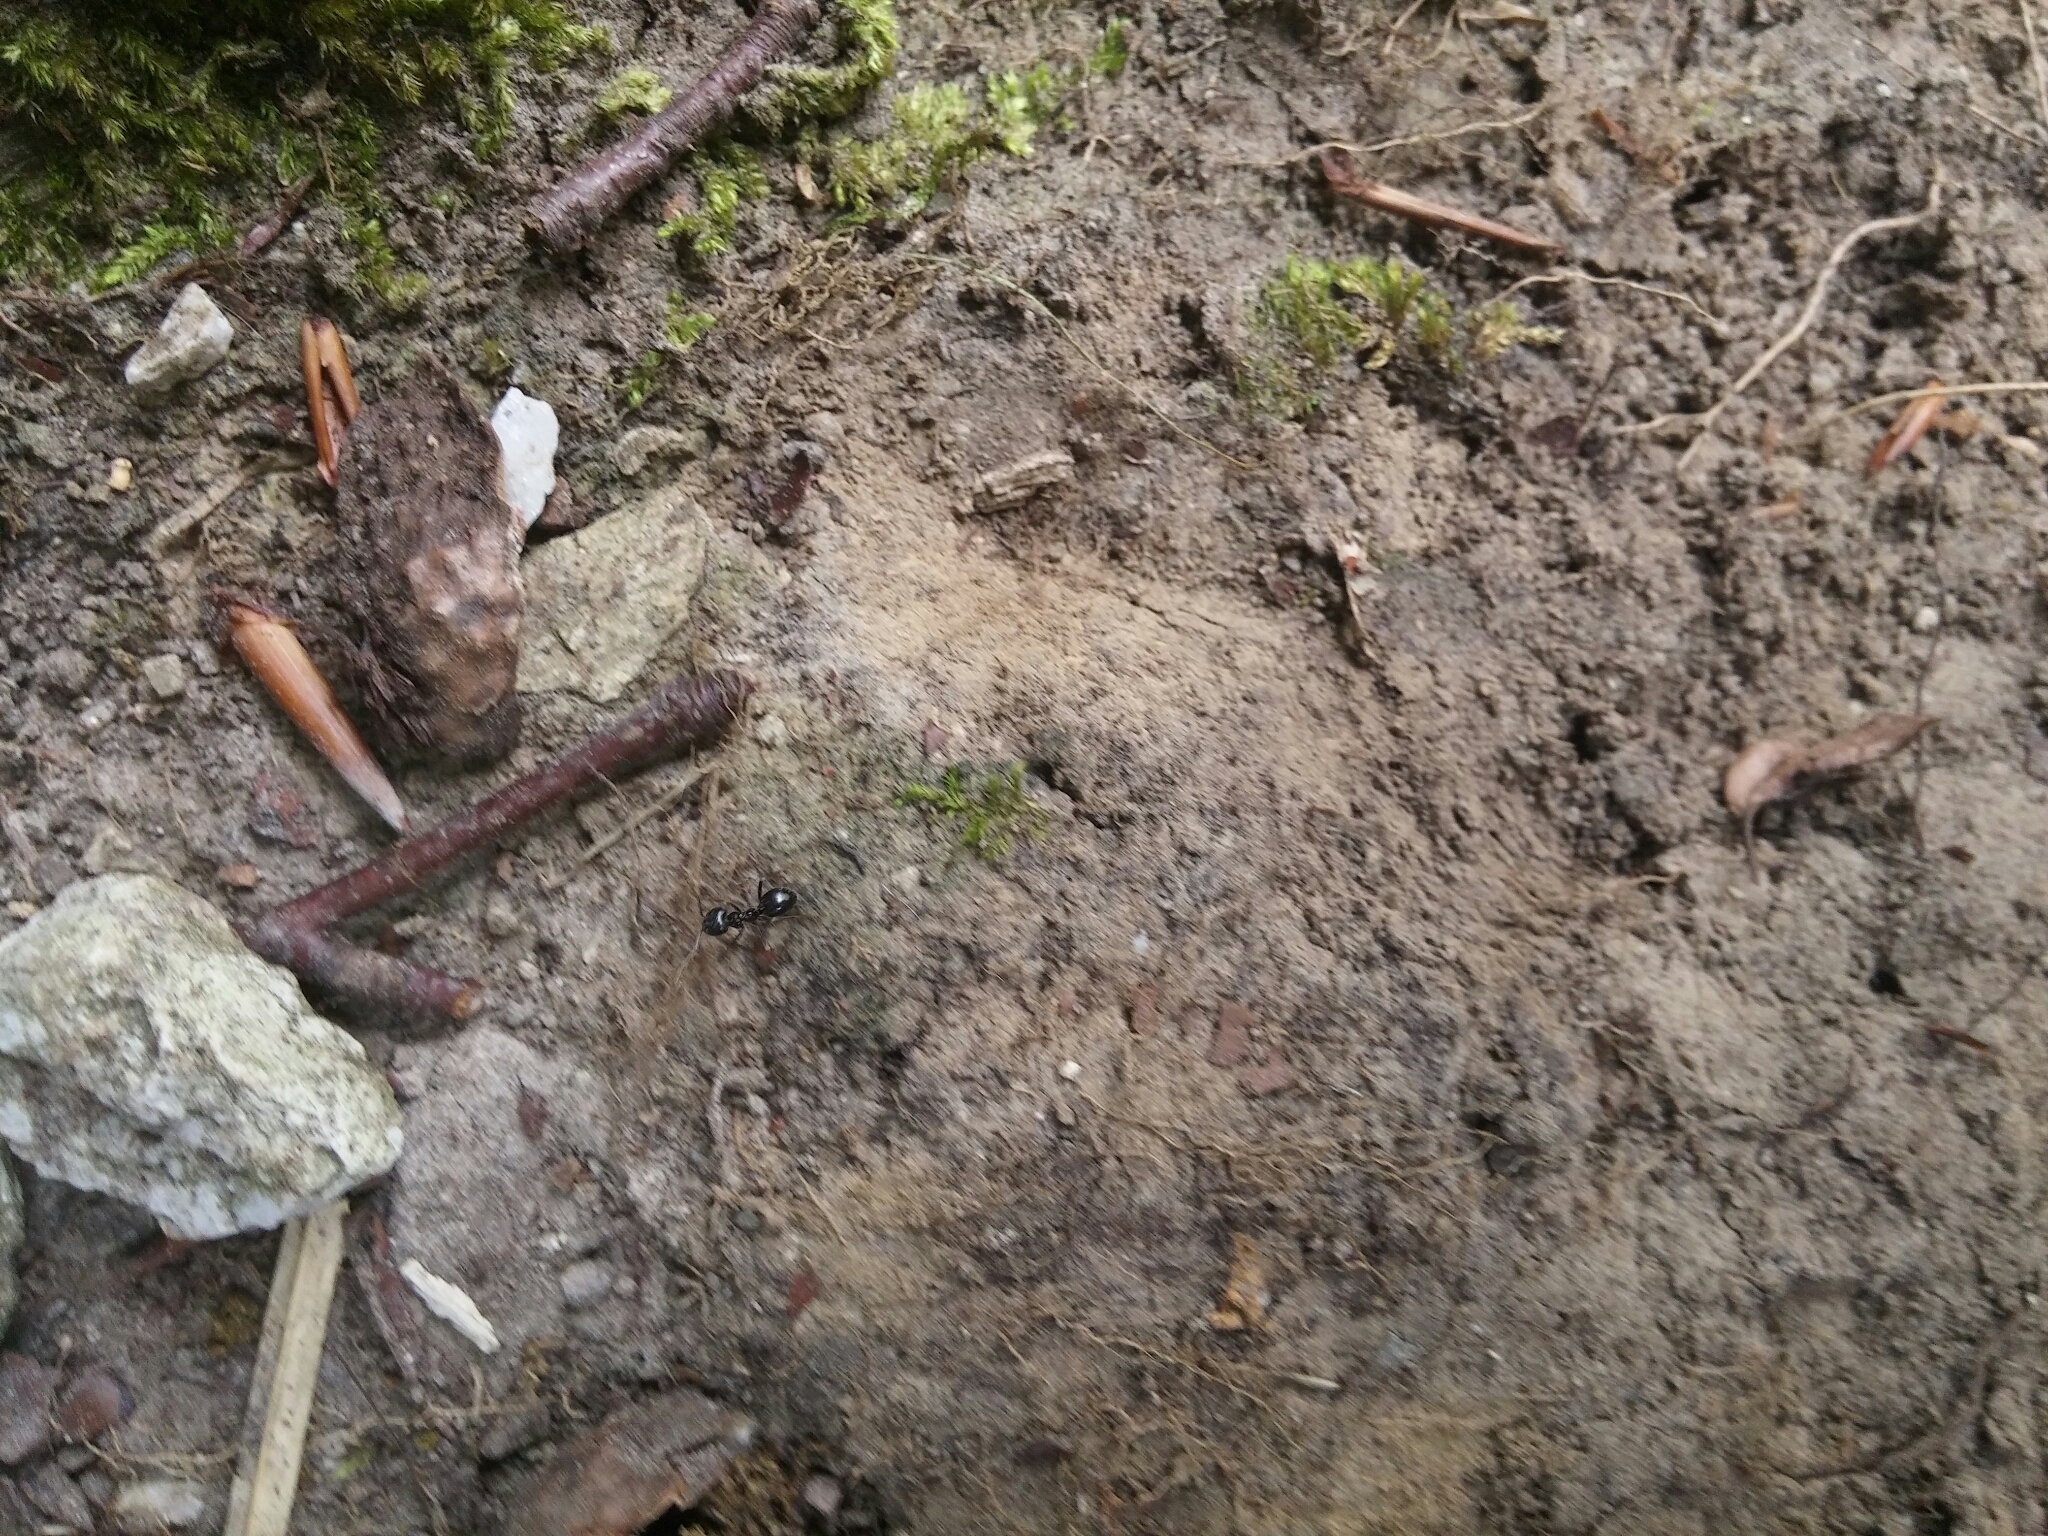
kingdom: Animalia
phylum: Arthropoda
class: Insecta
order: Hymenoptera
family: Formicidae
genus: Lasius
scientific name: Lasius fuliginosus
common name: Jet ant
